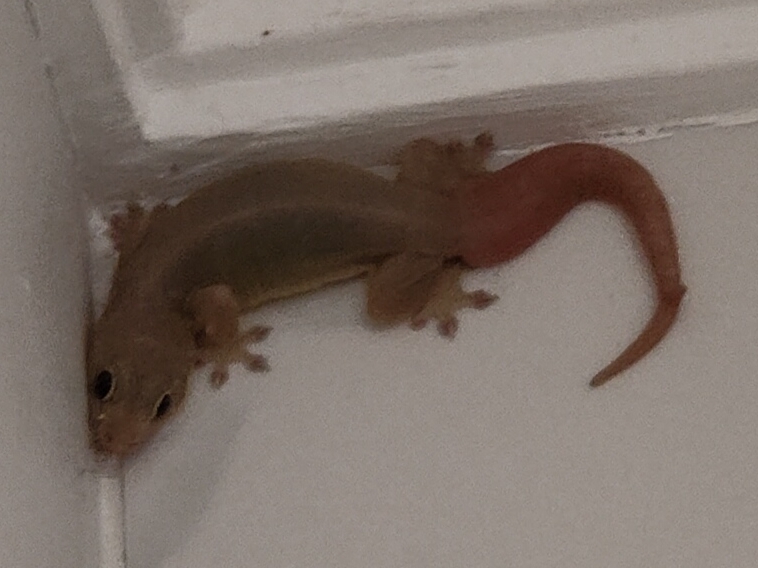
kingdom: Animalia
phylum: Chordata
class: Squamata
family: Gekkonidae
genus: Gehyra
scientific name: Gehyra mutilata
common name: Stump-toed gecko
